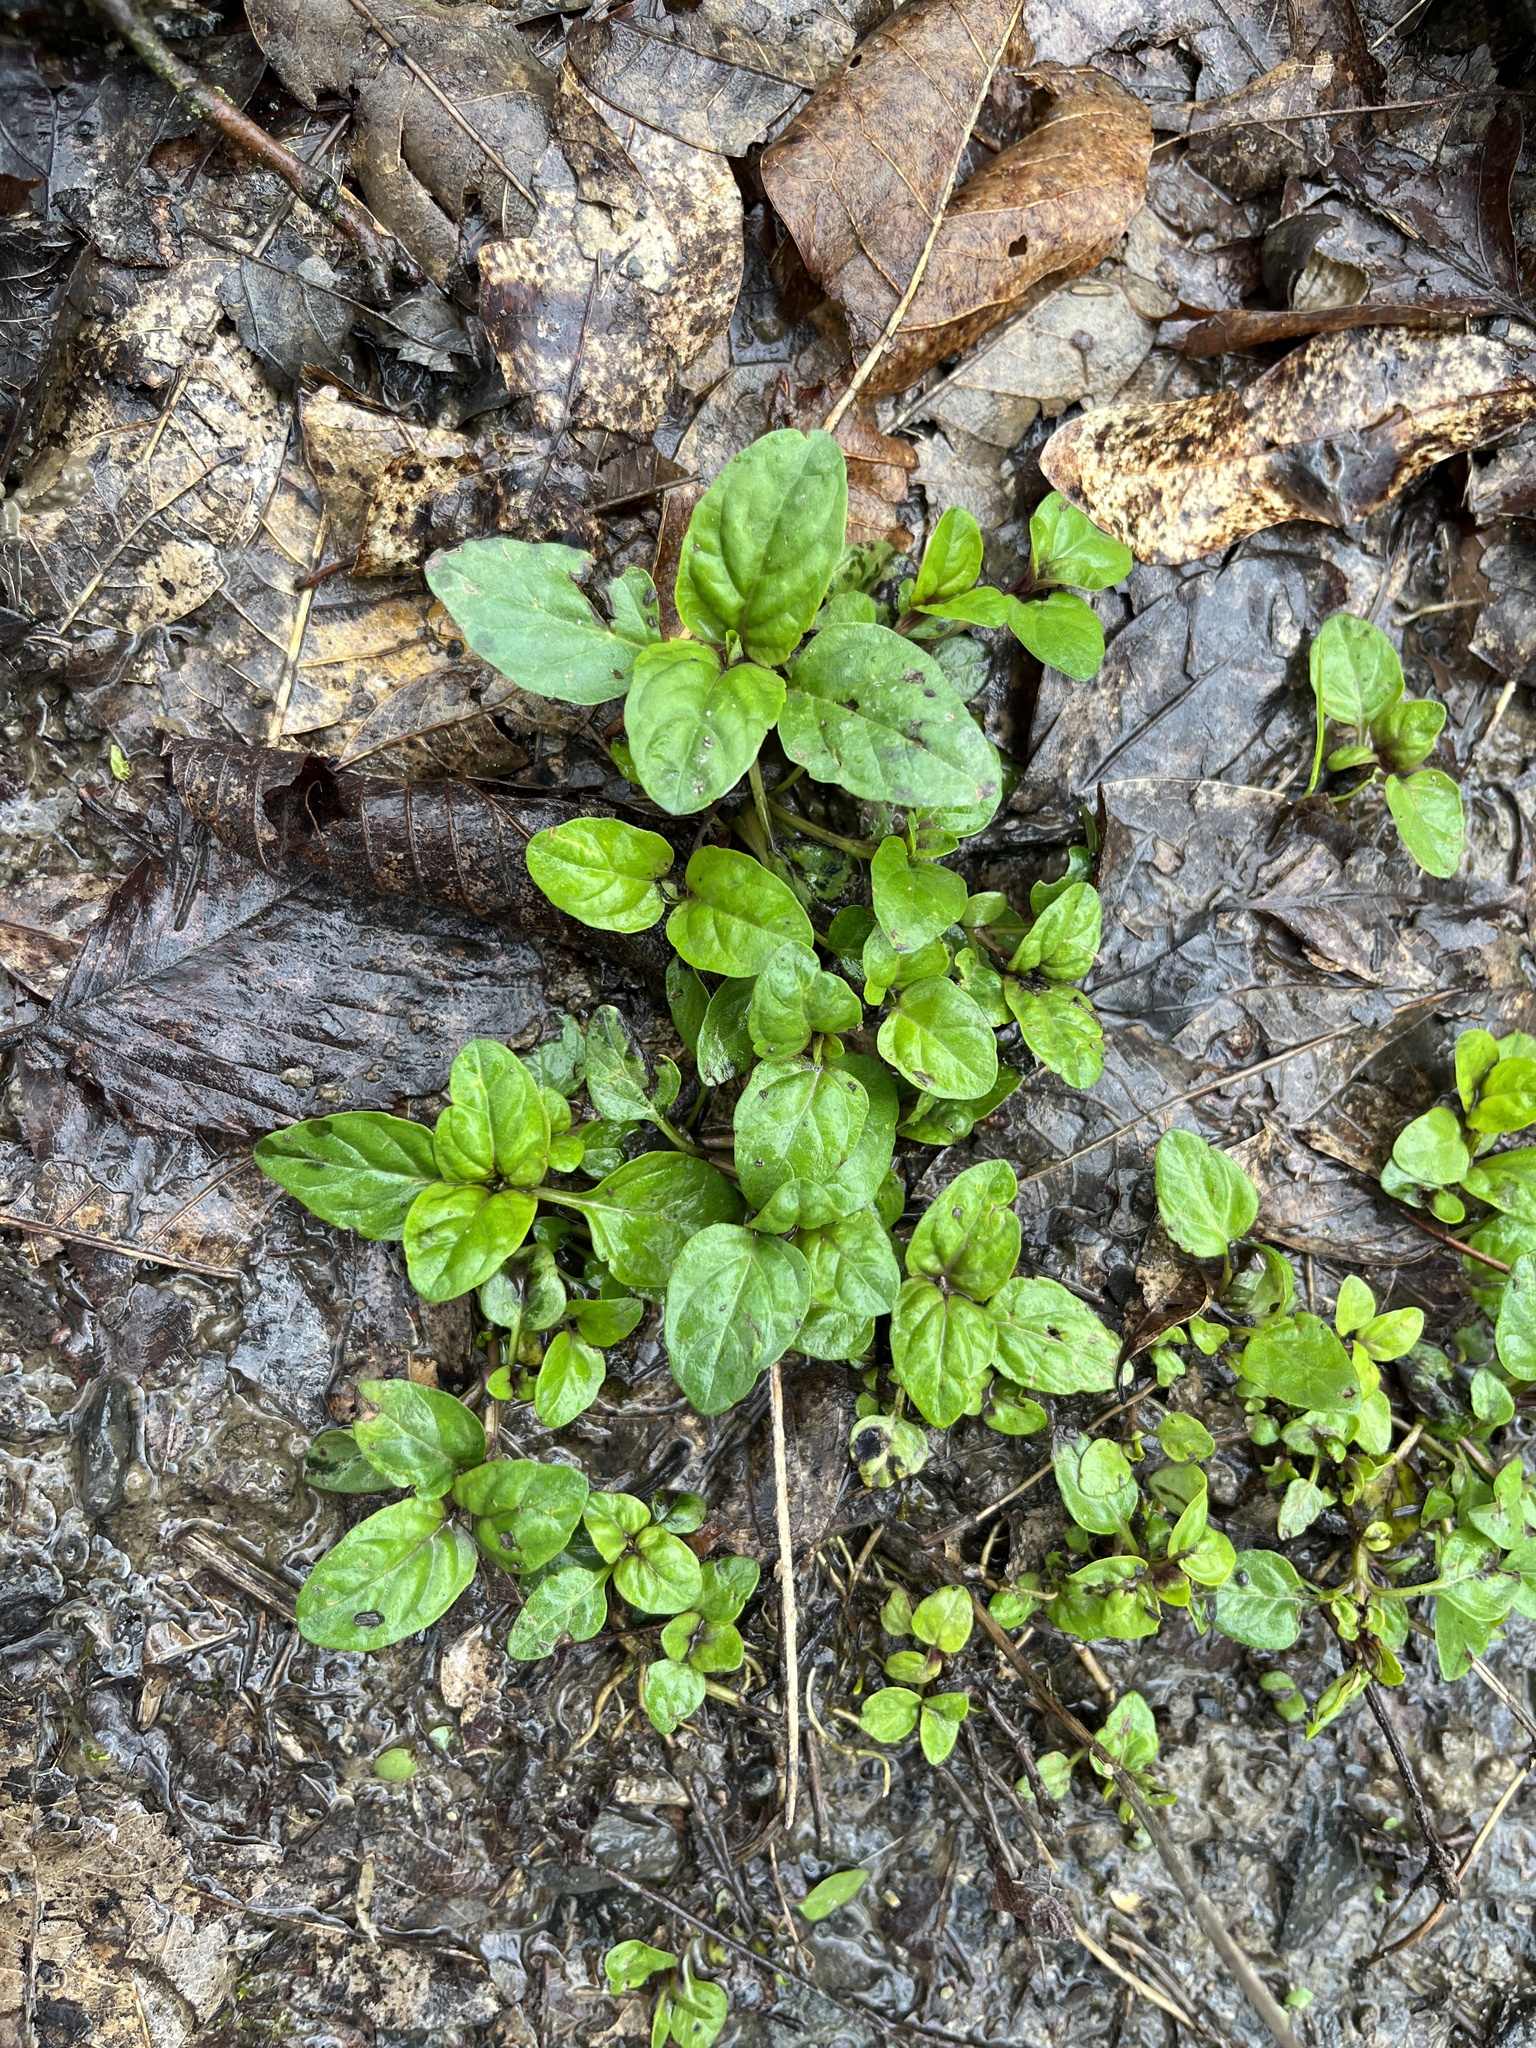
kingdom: Plantae
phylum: Tracheophyta
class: Magnoliopsida
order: Lamiales
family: Lamiaceae
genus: Prunella
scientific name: Prunella vulgaris
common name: Heal-all
